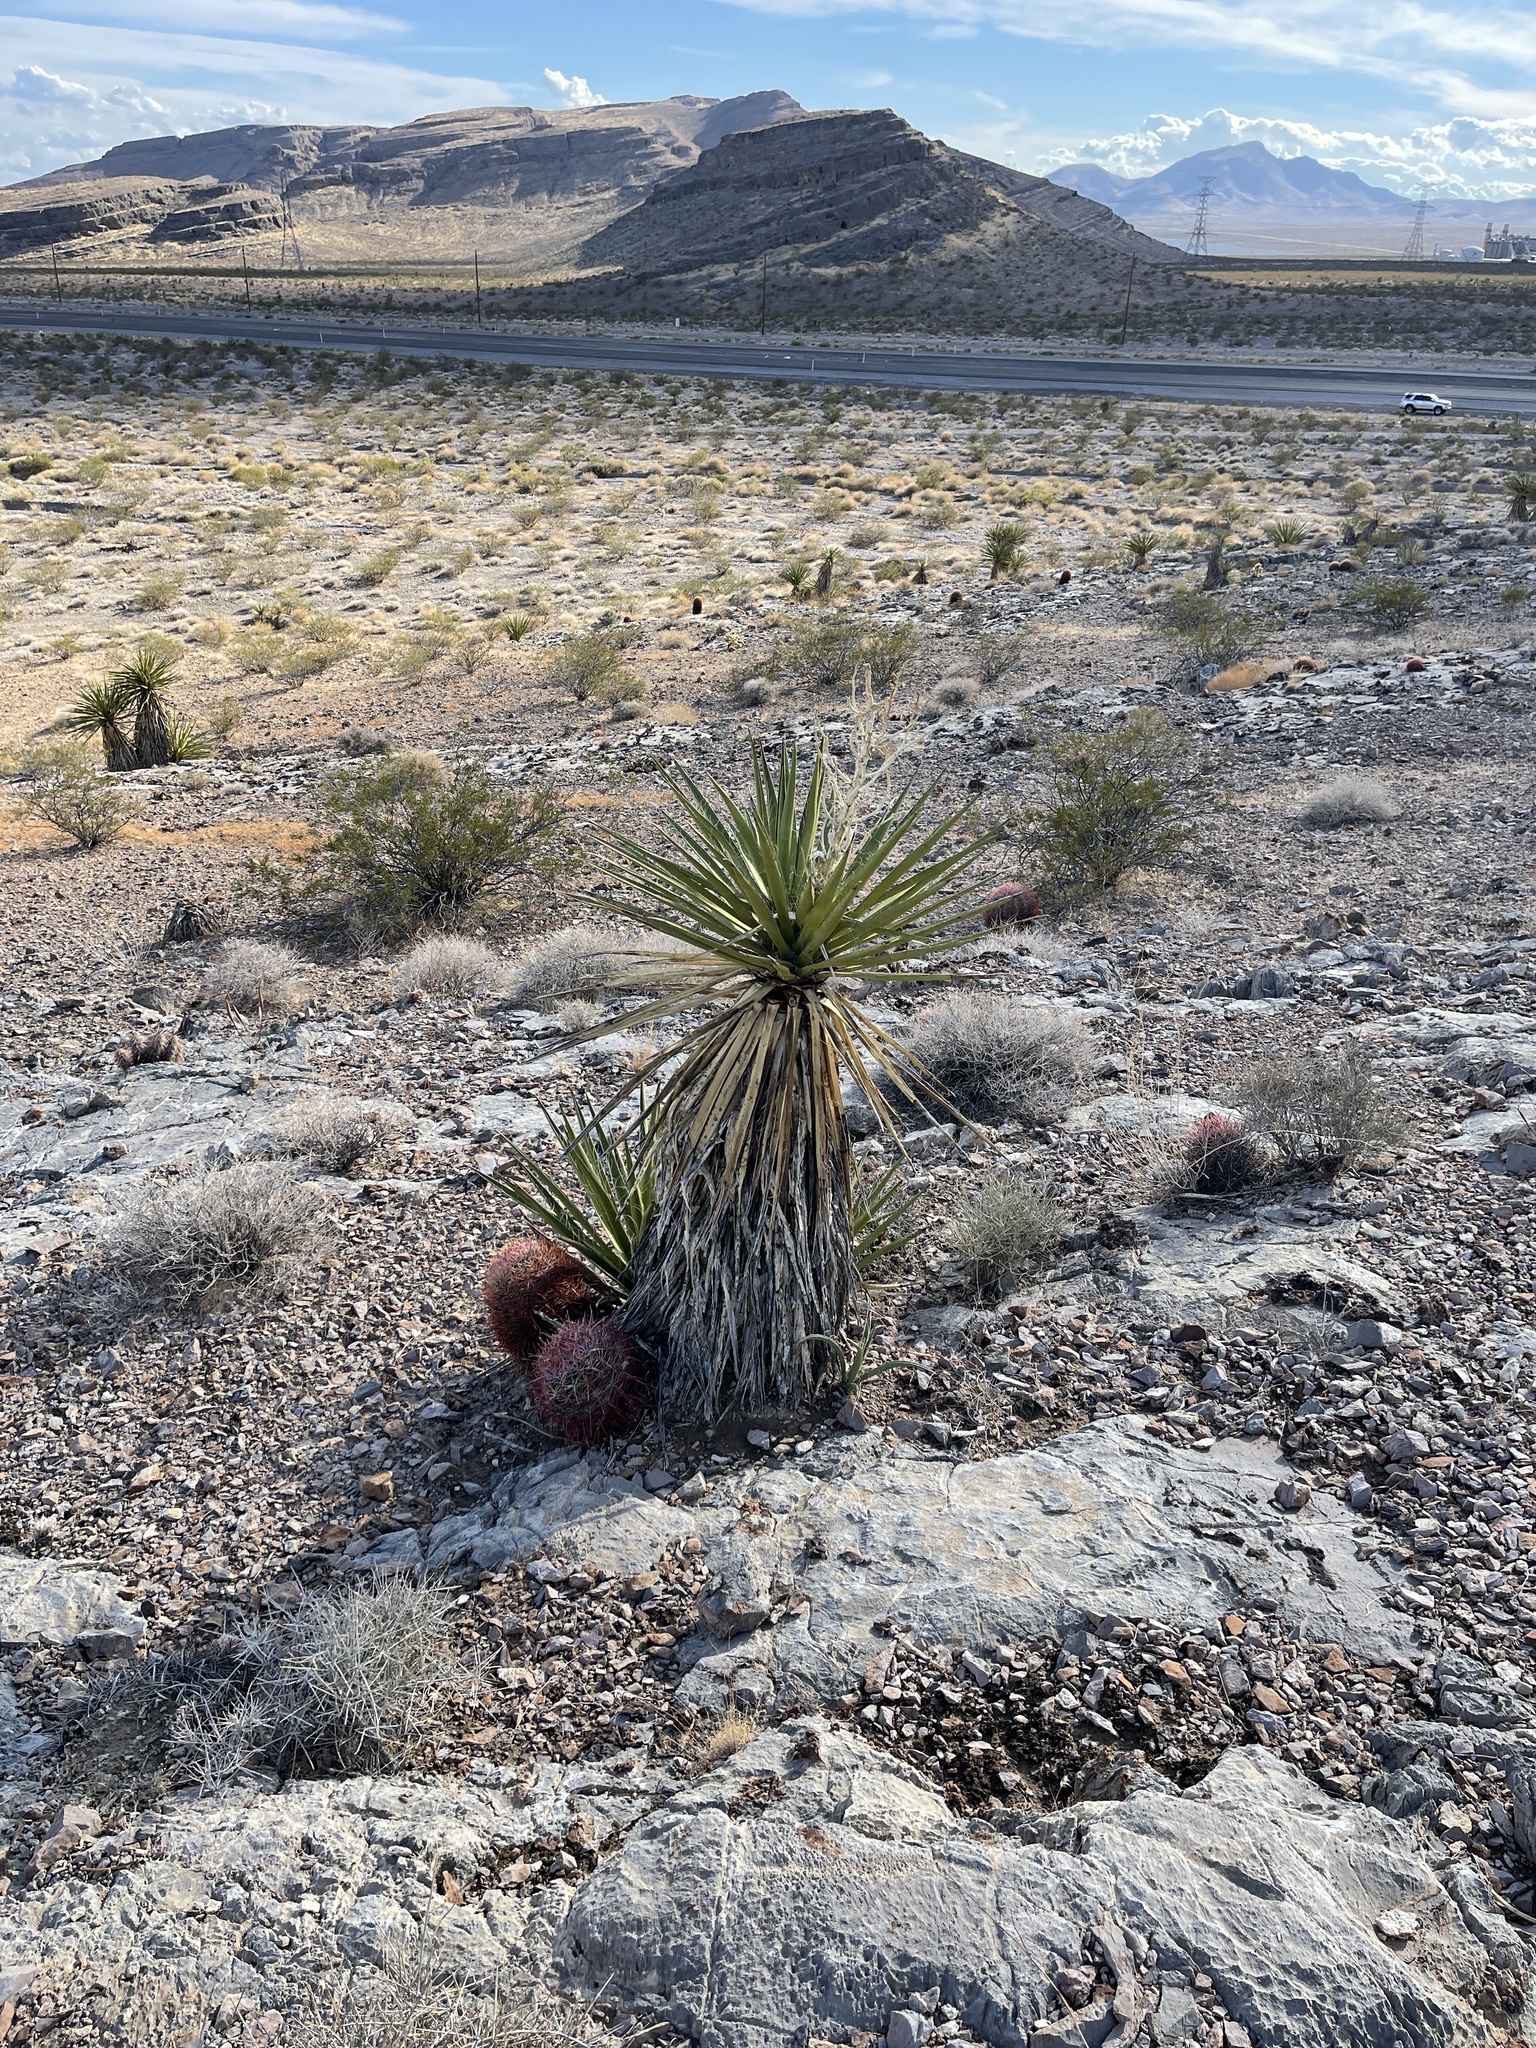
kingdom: Plantae
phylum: Tracheophyta
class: Liliopsida
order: Asparagales
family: Asparagaceae
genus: Yucca
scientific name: Yucca schidigera
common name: Mojave yucca
